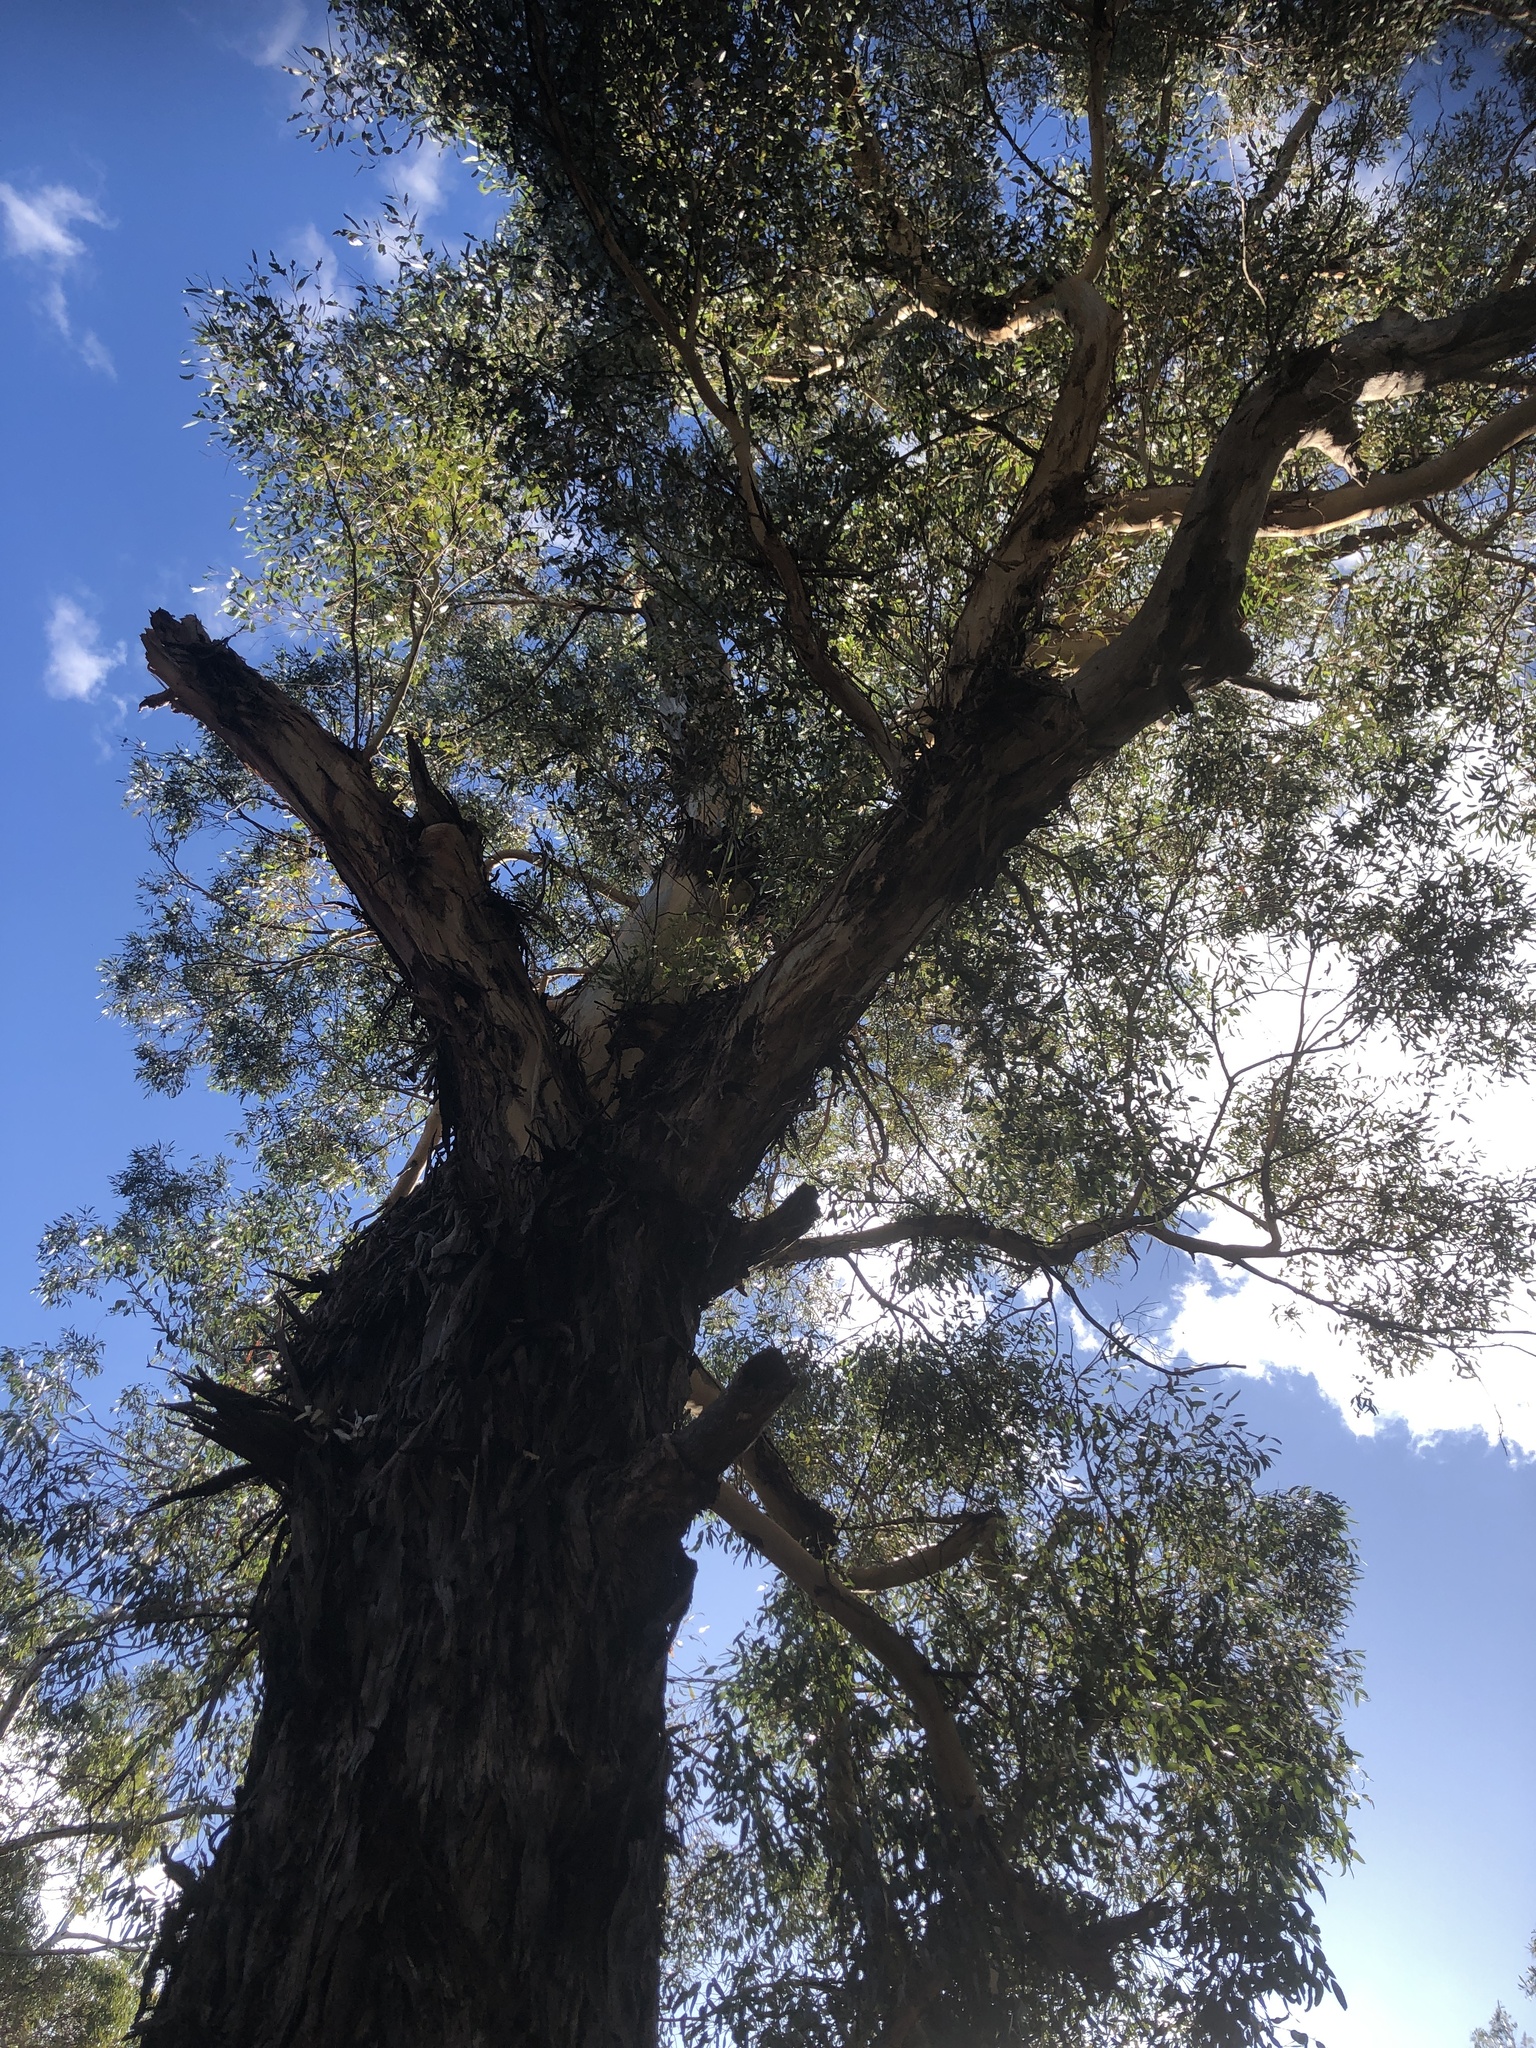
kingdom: Plantae
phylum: Tracheophyta
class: Magnoliopsida
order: Myrtales
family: Myrtaceae
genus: Eucalyptus
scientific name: Eucalyptus cornuta
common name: Yate
